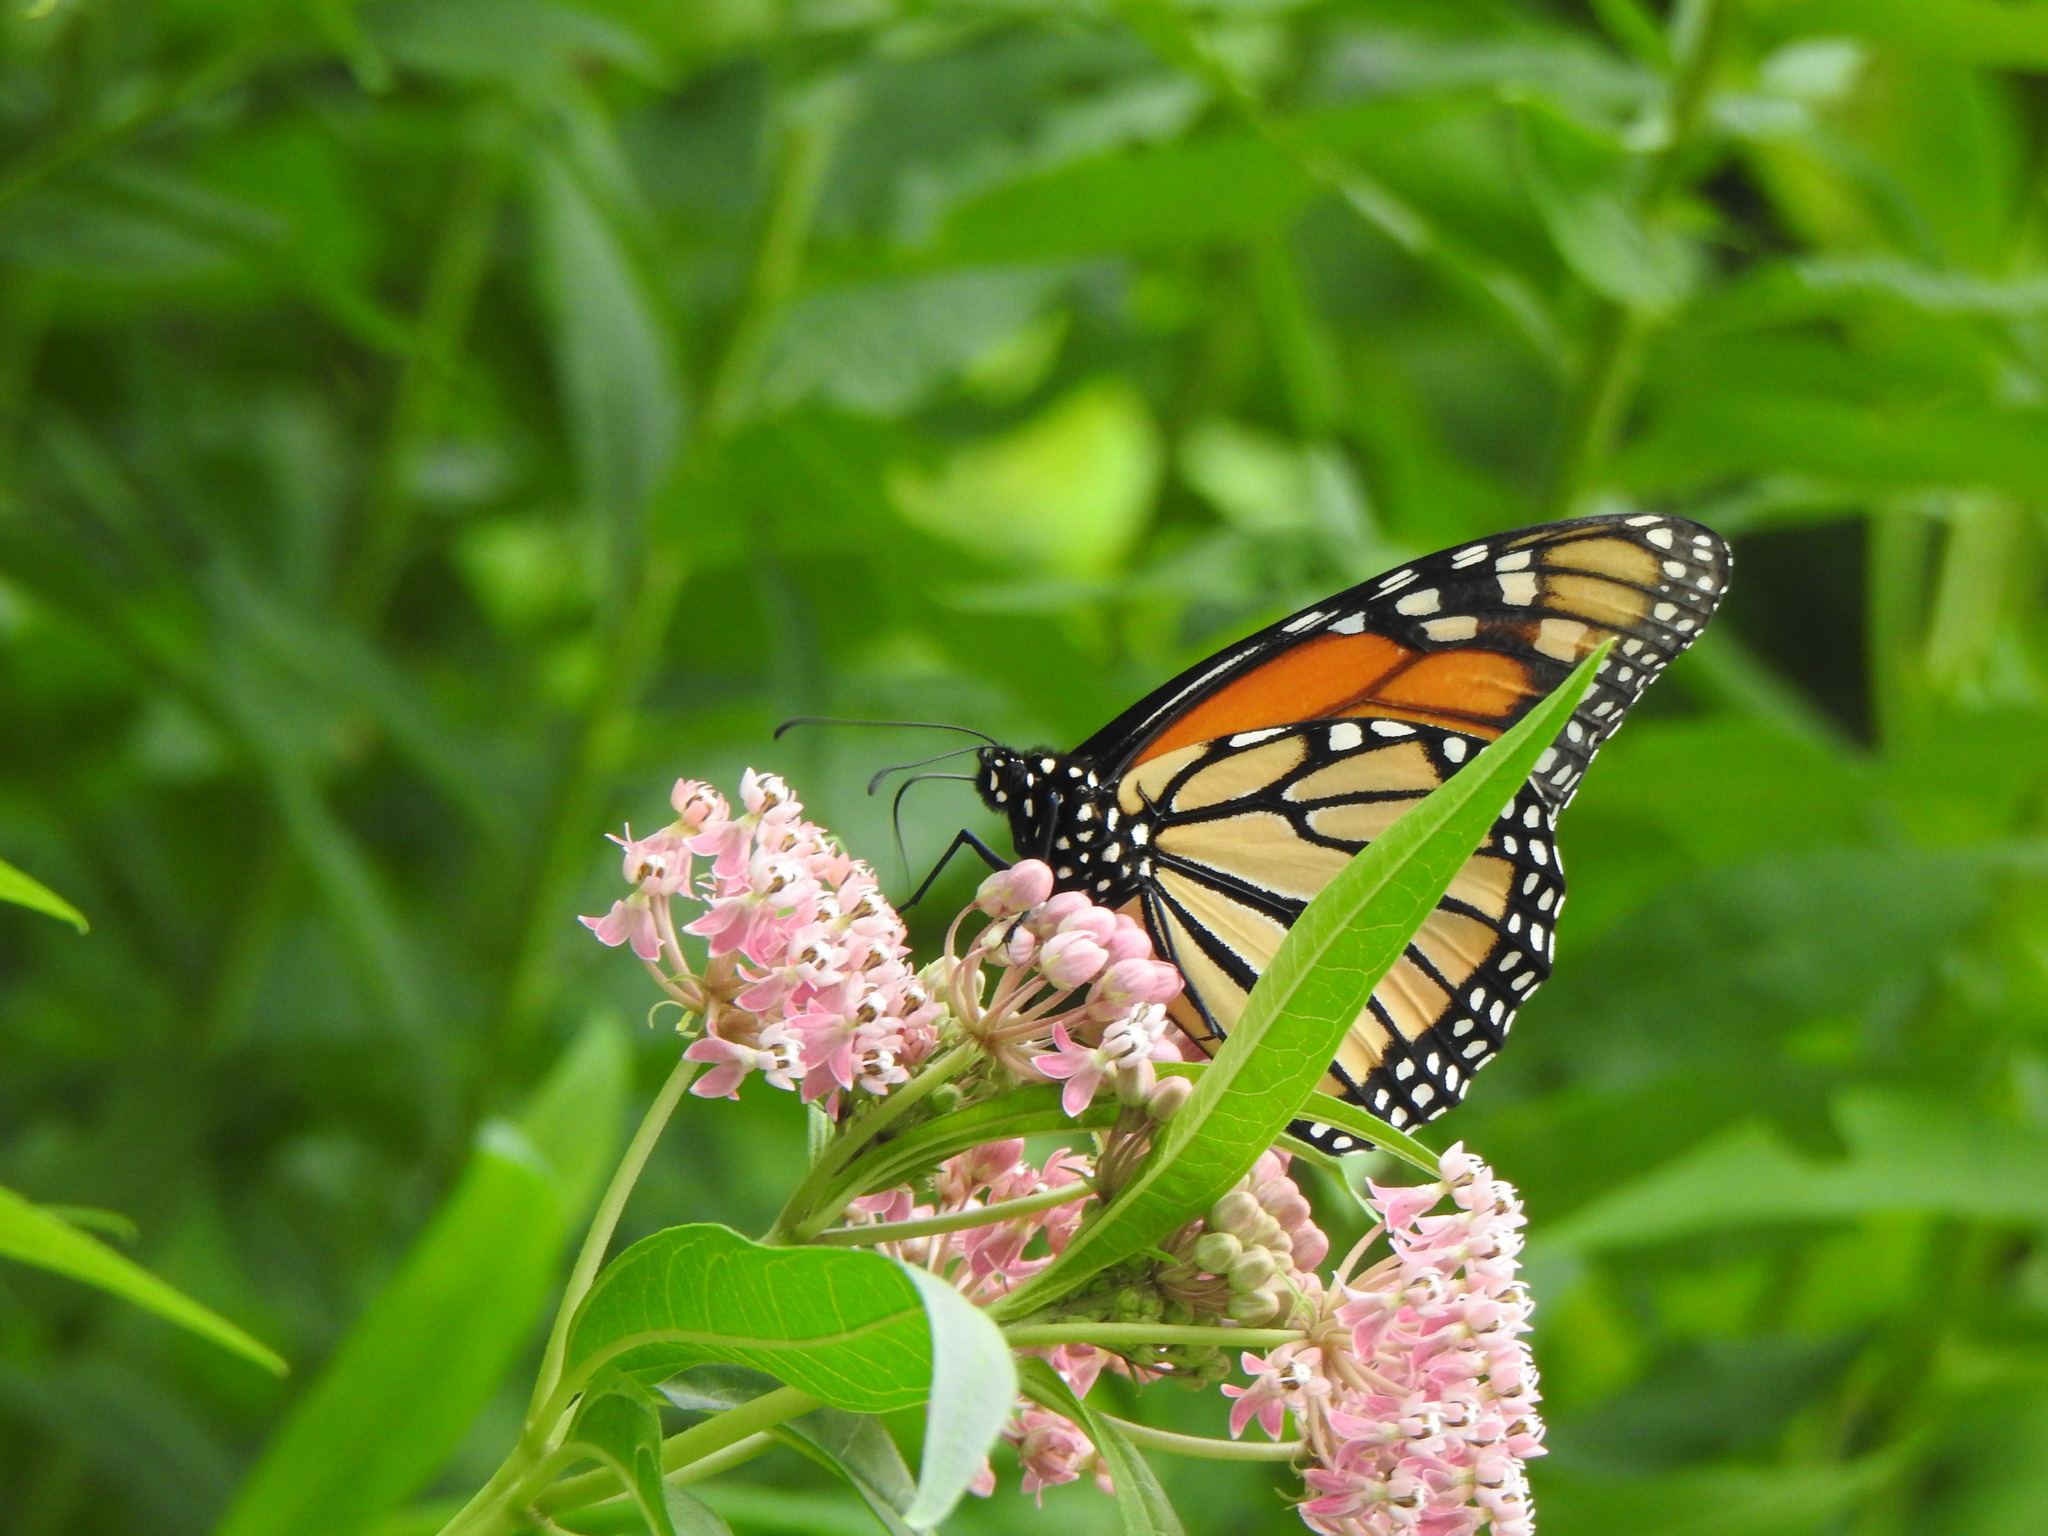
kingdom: Animalia
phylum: Arthropoda
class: Insecta
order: Lepidoptera
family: Nymphalidae
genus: Danaus
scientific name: Danaus plexippus
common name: Monarch
